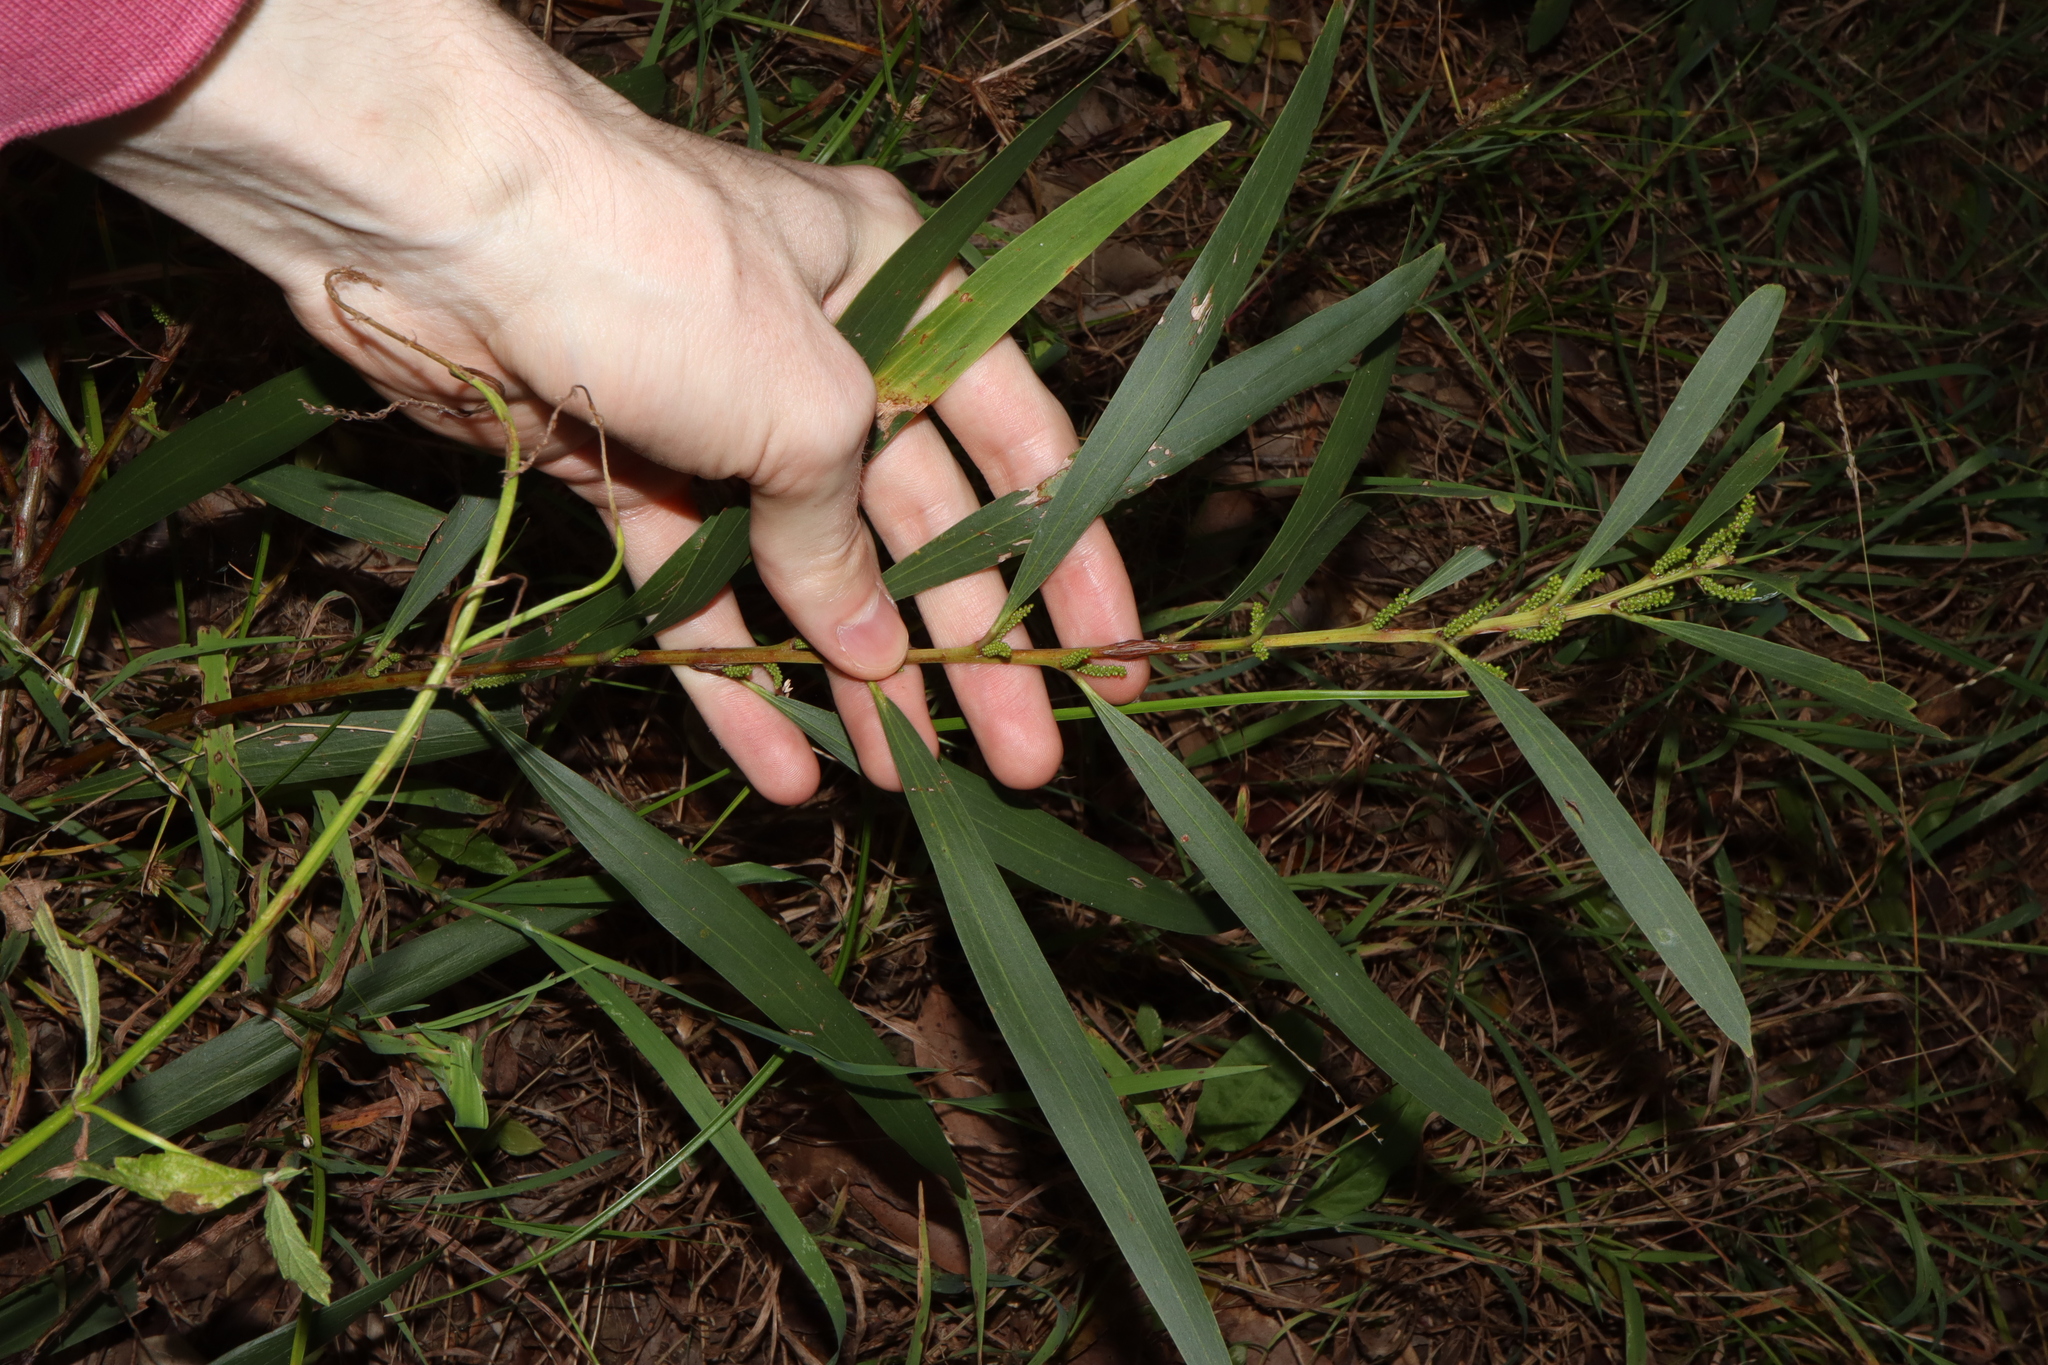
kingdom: Plantae
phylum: Tracheophyta
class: Magnoliopsida
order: Fabales
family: Fabaceae
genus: Acacia
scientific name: Acacia longifolia
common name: Sydney golden wattle
